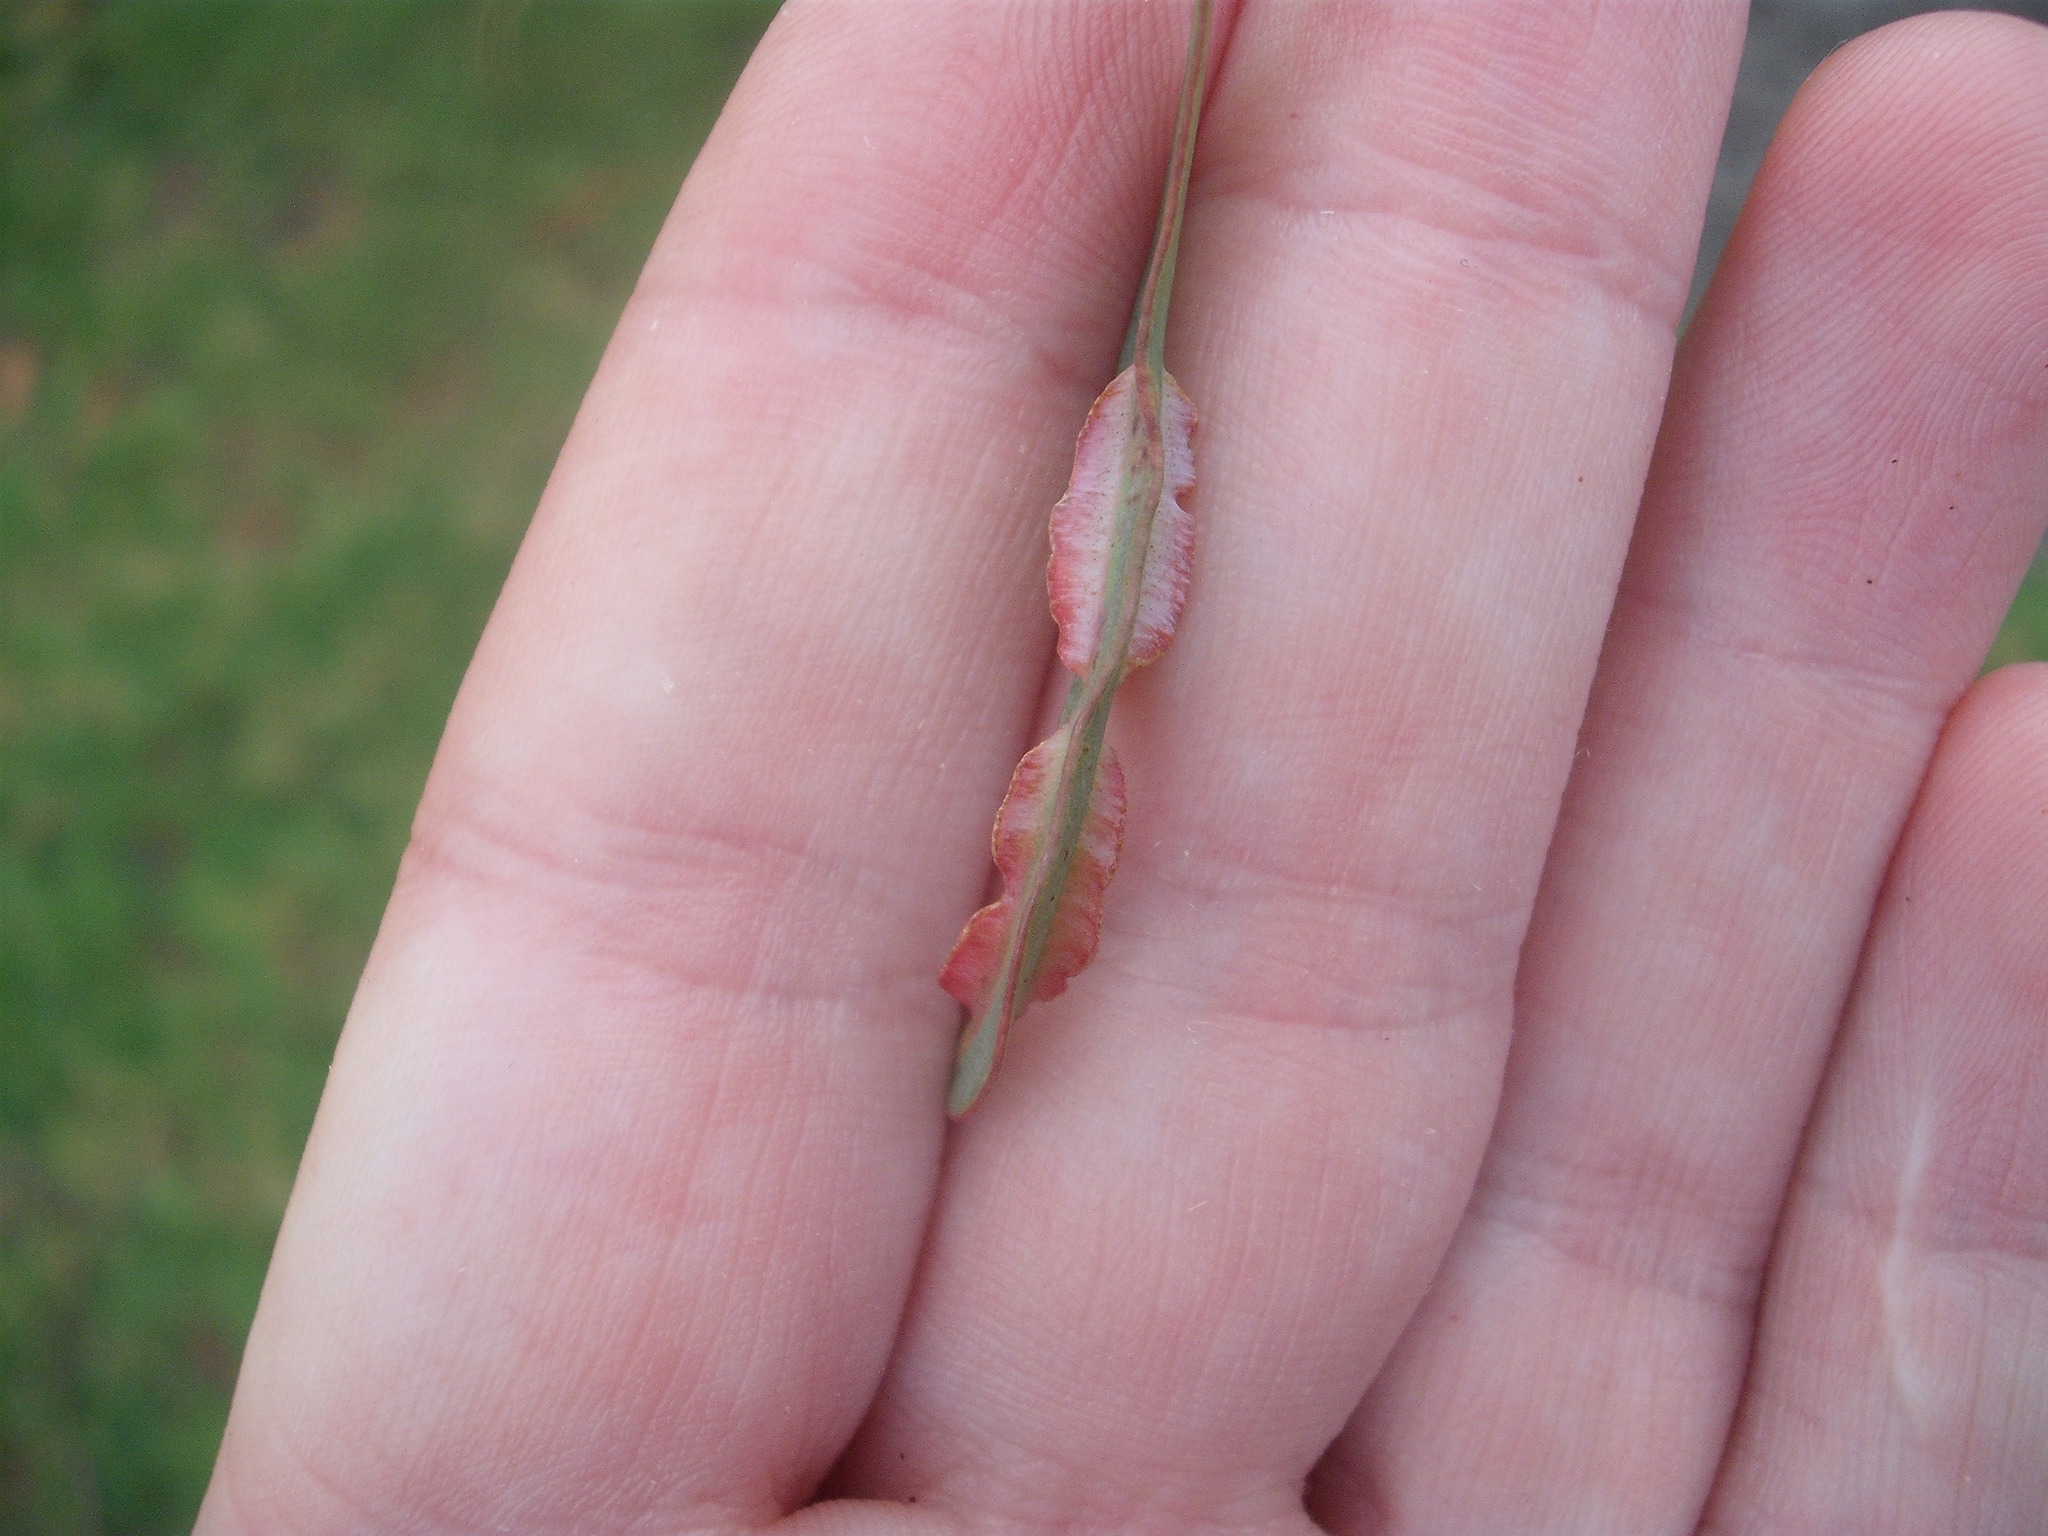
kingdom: Animalia
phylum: Arthropoda
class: Insecta
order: Hymenoptera
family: Pteromalidae
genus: Nambouria
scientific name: Nambouria xanthops
